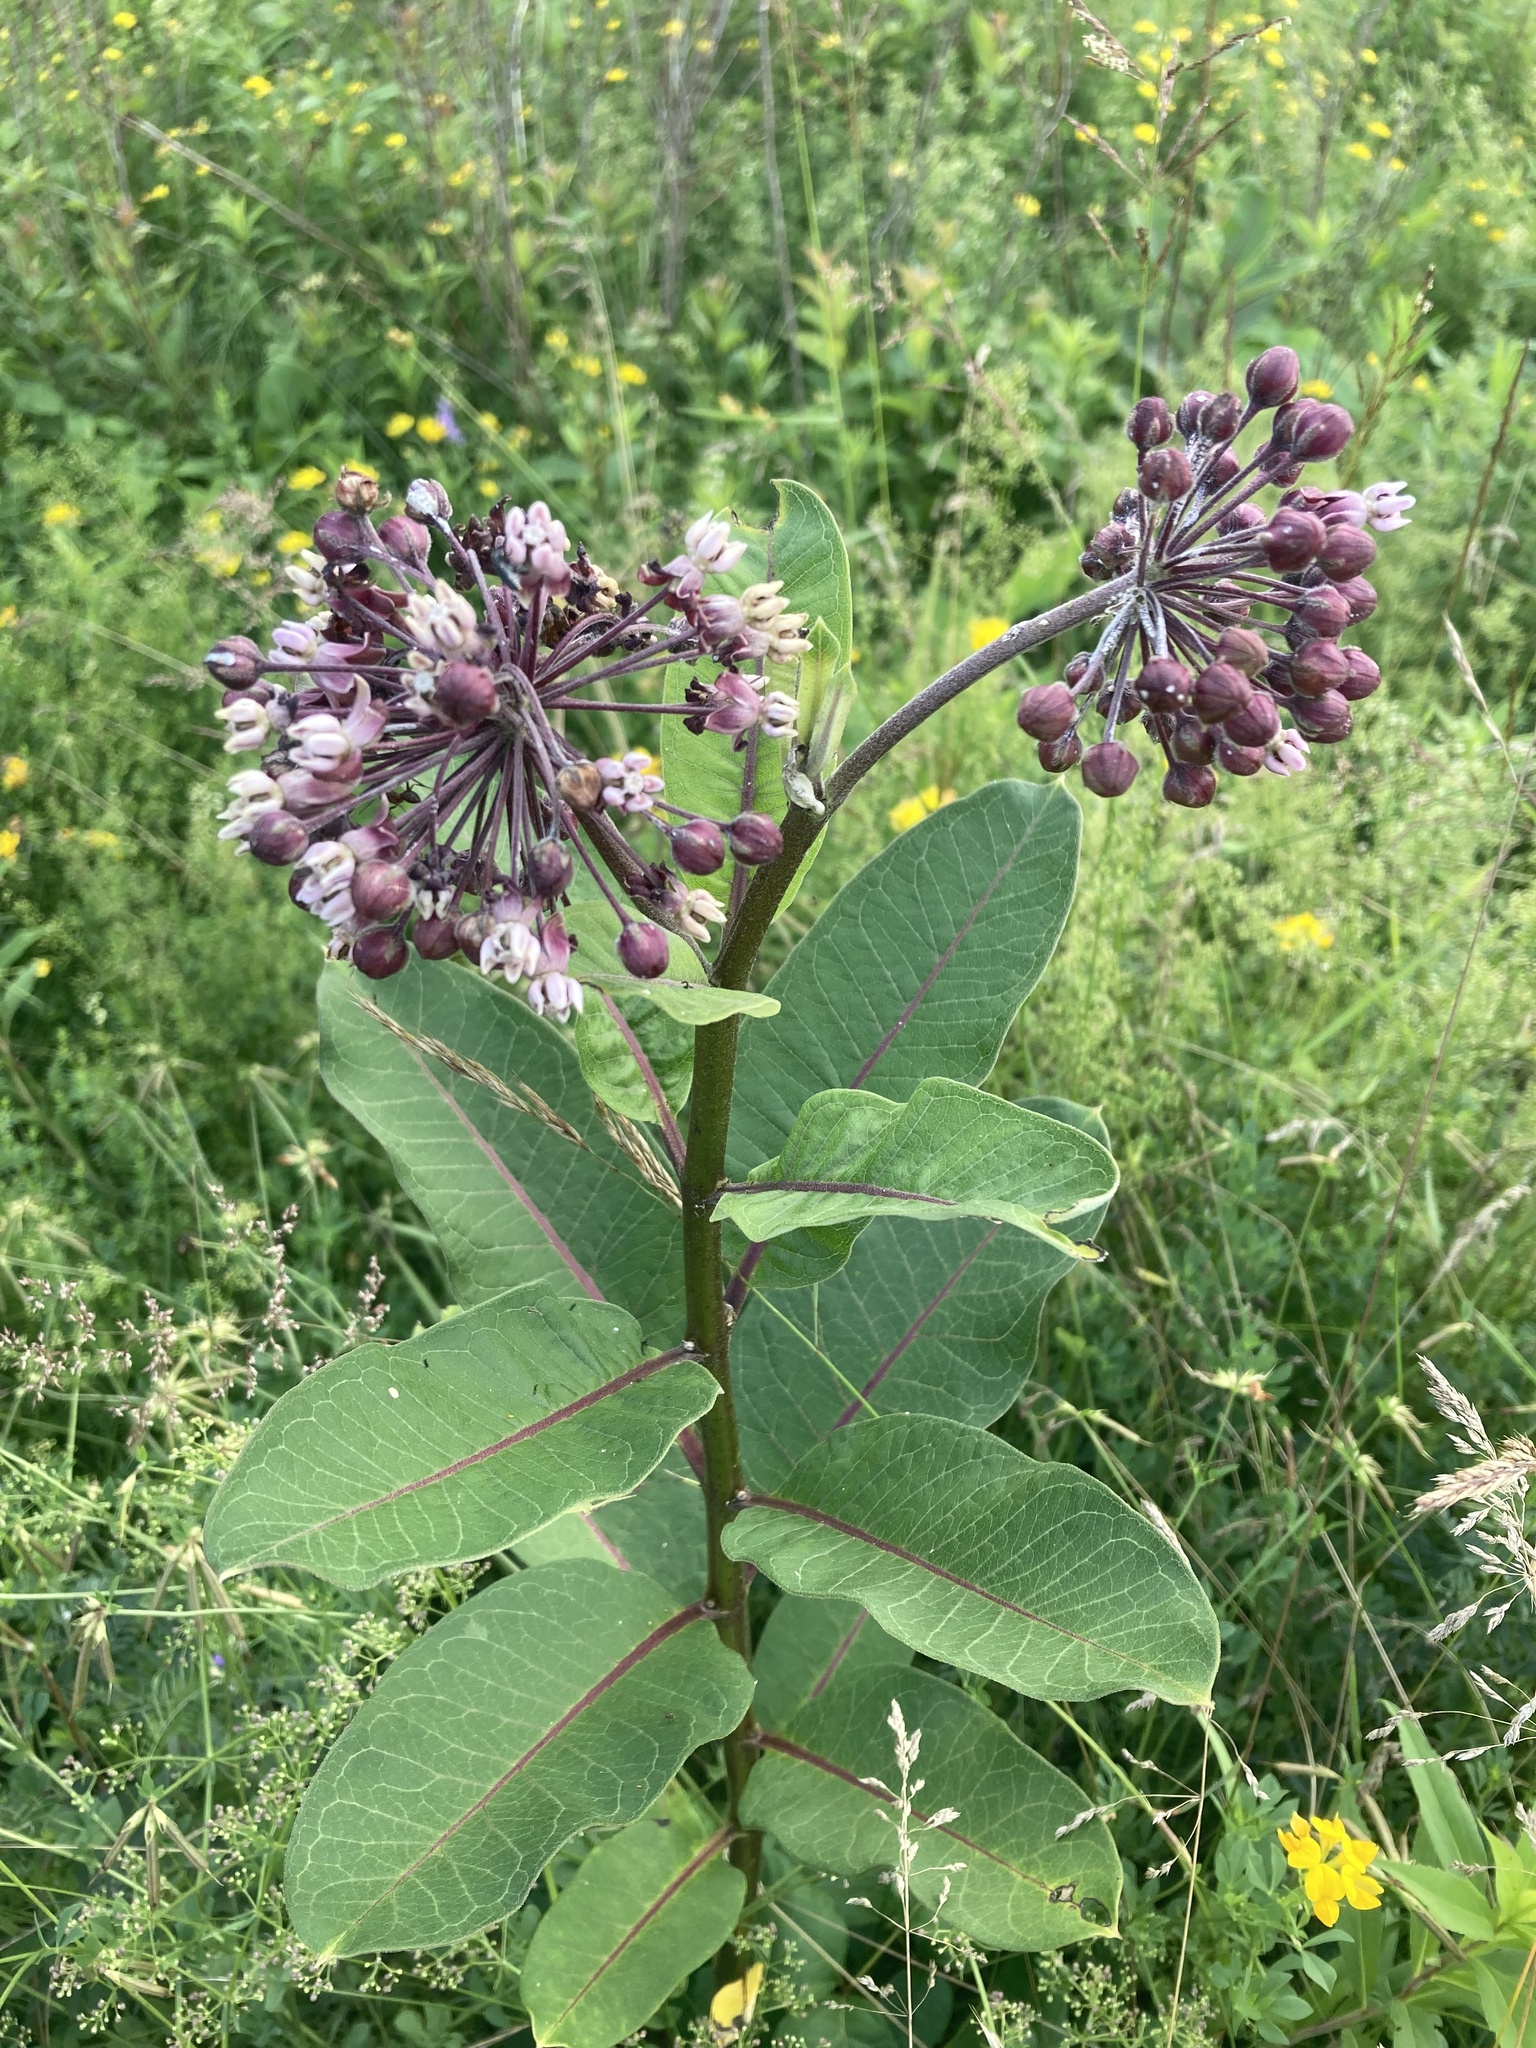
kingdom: Plantae
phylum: Tracheophyta
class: Magnoliopsida
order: Gentianales
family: Apocynaceae
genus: Asclepias
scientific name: Asclepias syriaca
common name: Common milkweed
